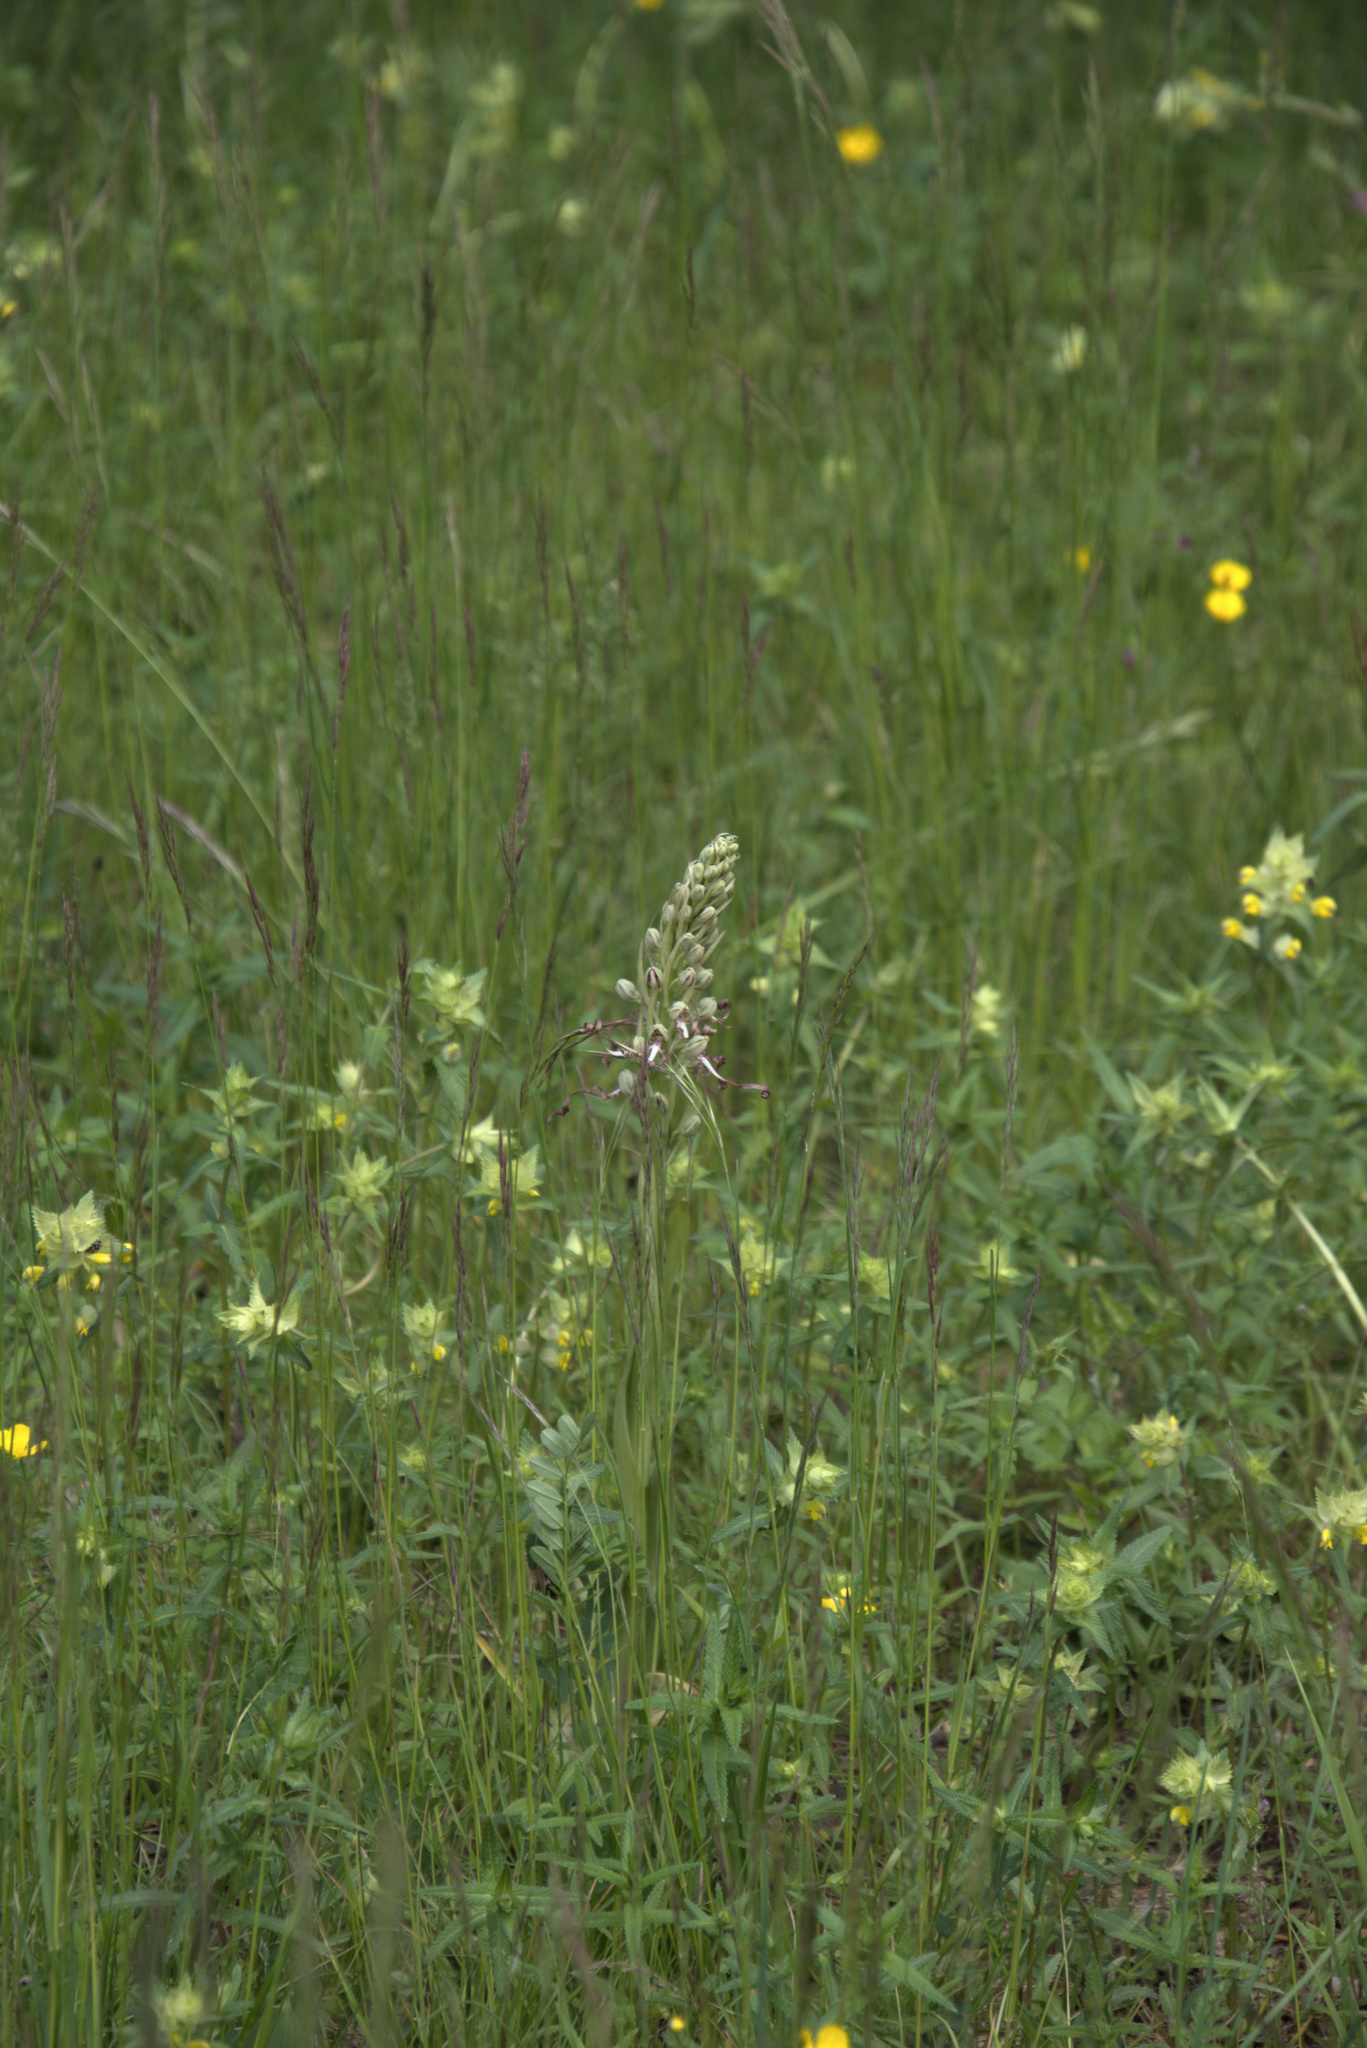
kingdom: Plantae
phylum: Tracheophyta
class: Liliopsida
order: Asparagales
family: Orchidaceae
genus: Himantoglossum
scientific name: Himantoglossum hircinum
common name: Lizard orchid
